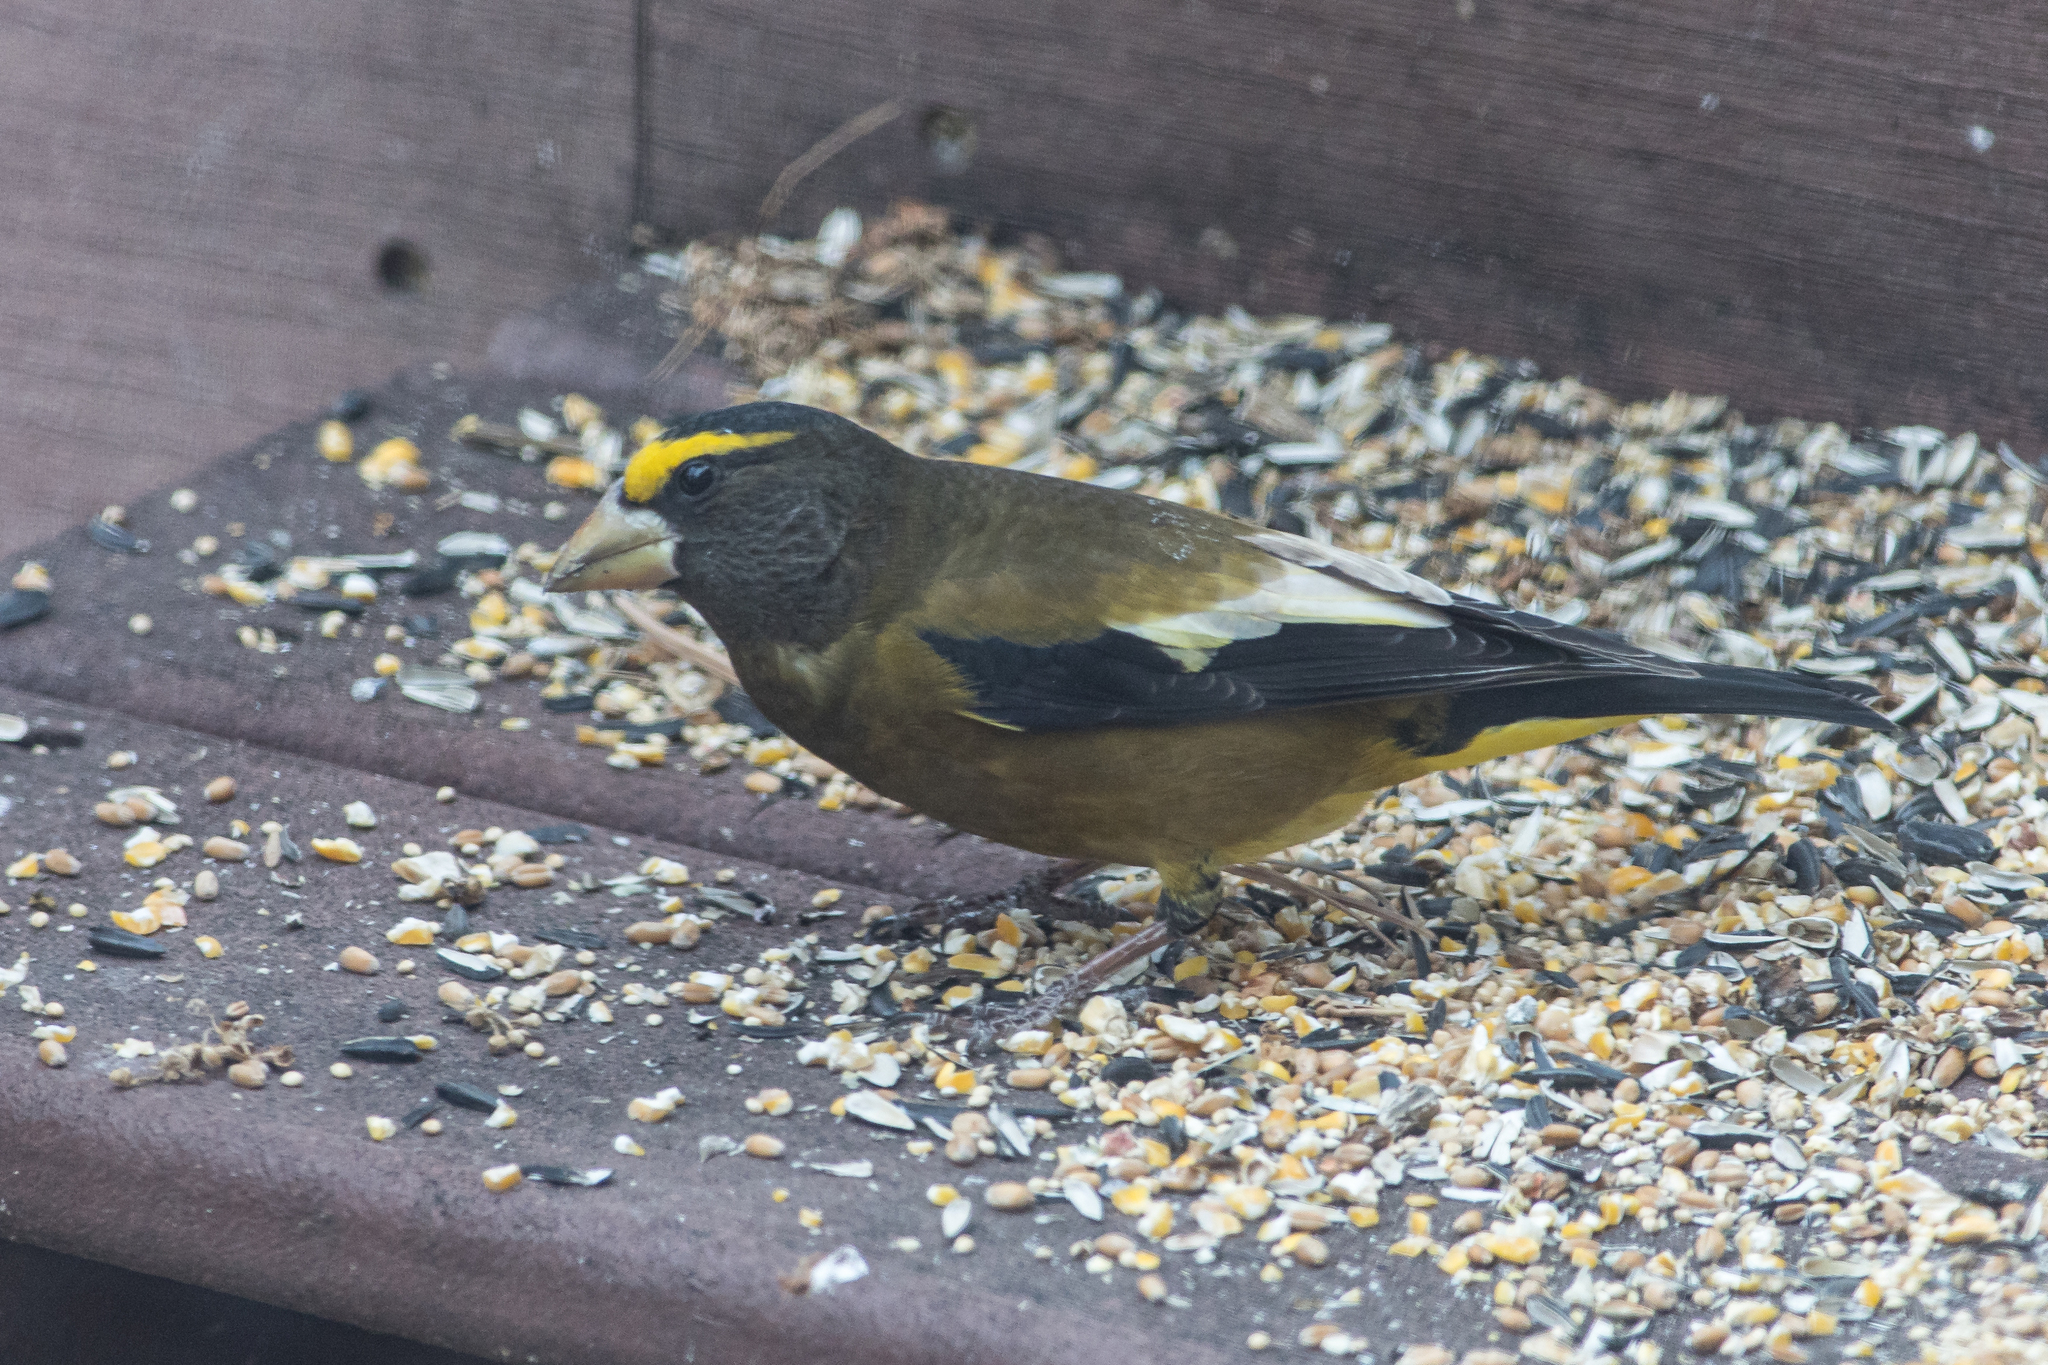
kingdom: Animalia
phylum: Chordata
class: Aves
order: Passeriformes
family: Fringillidae
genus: Hesperiphona
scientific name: Hesperiphona vespertina
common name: Evening grosbeak
